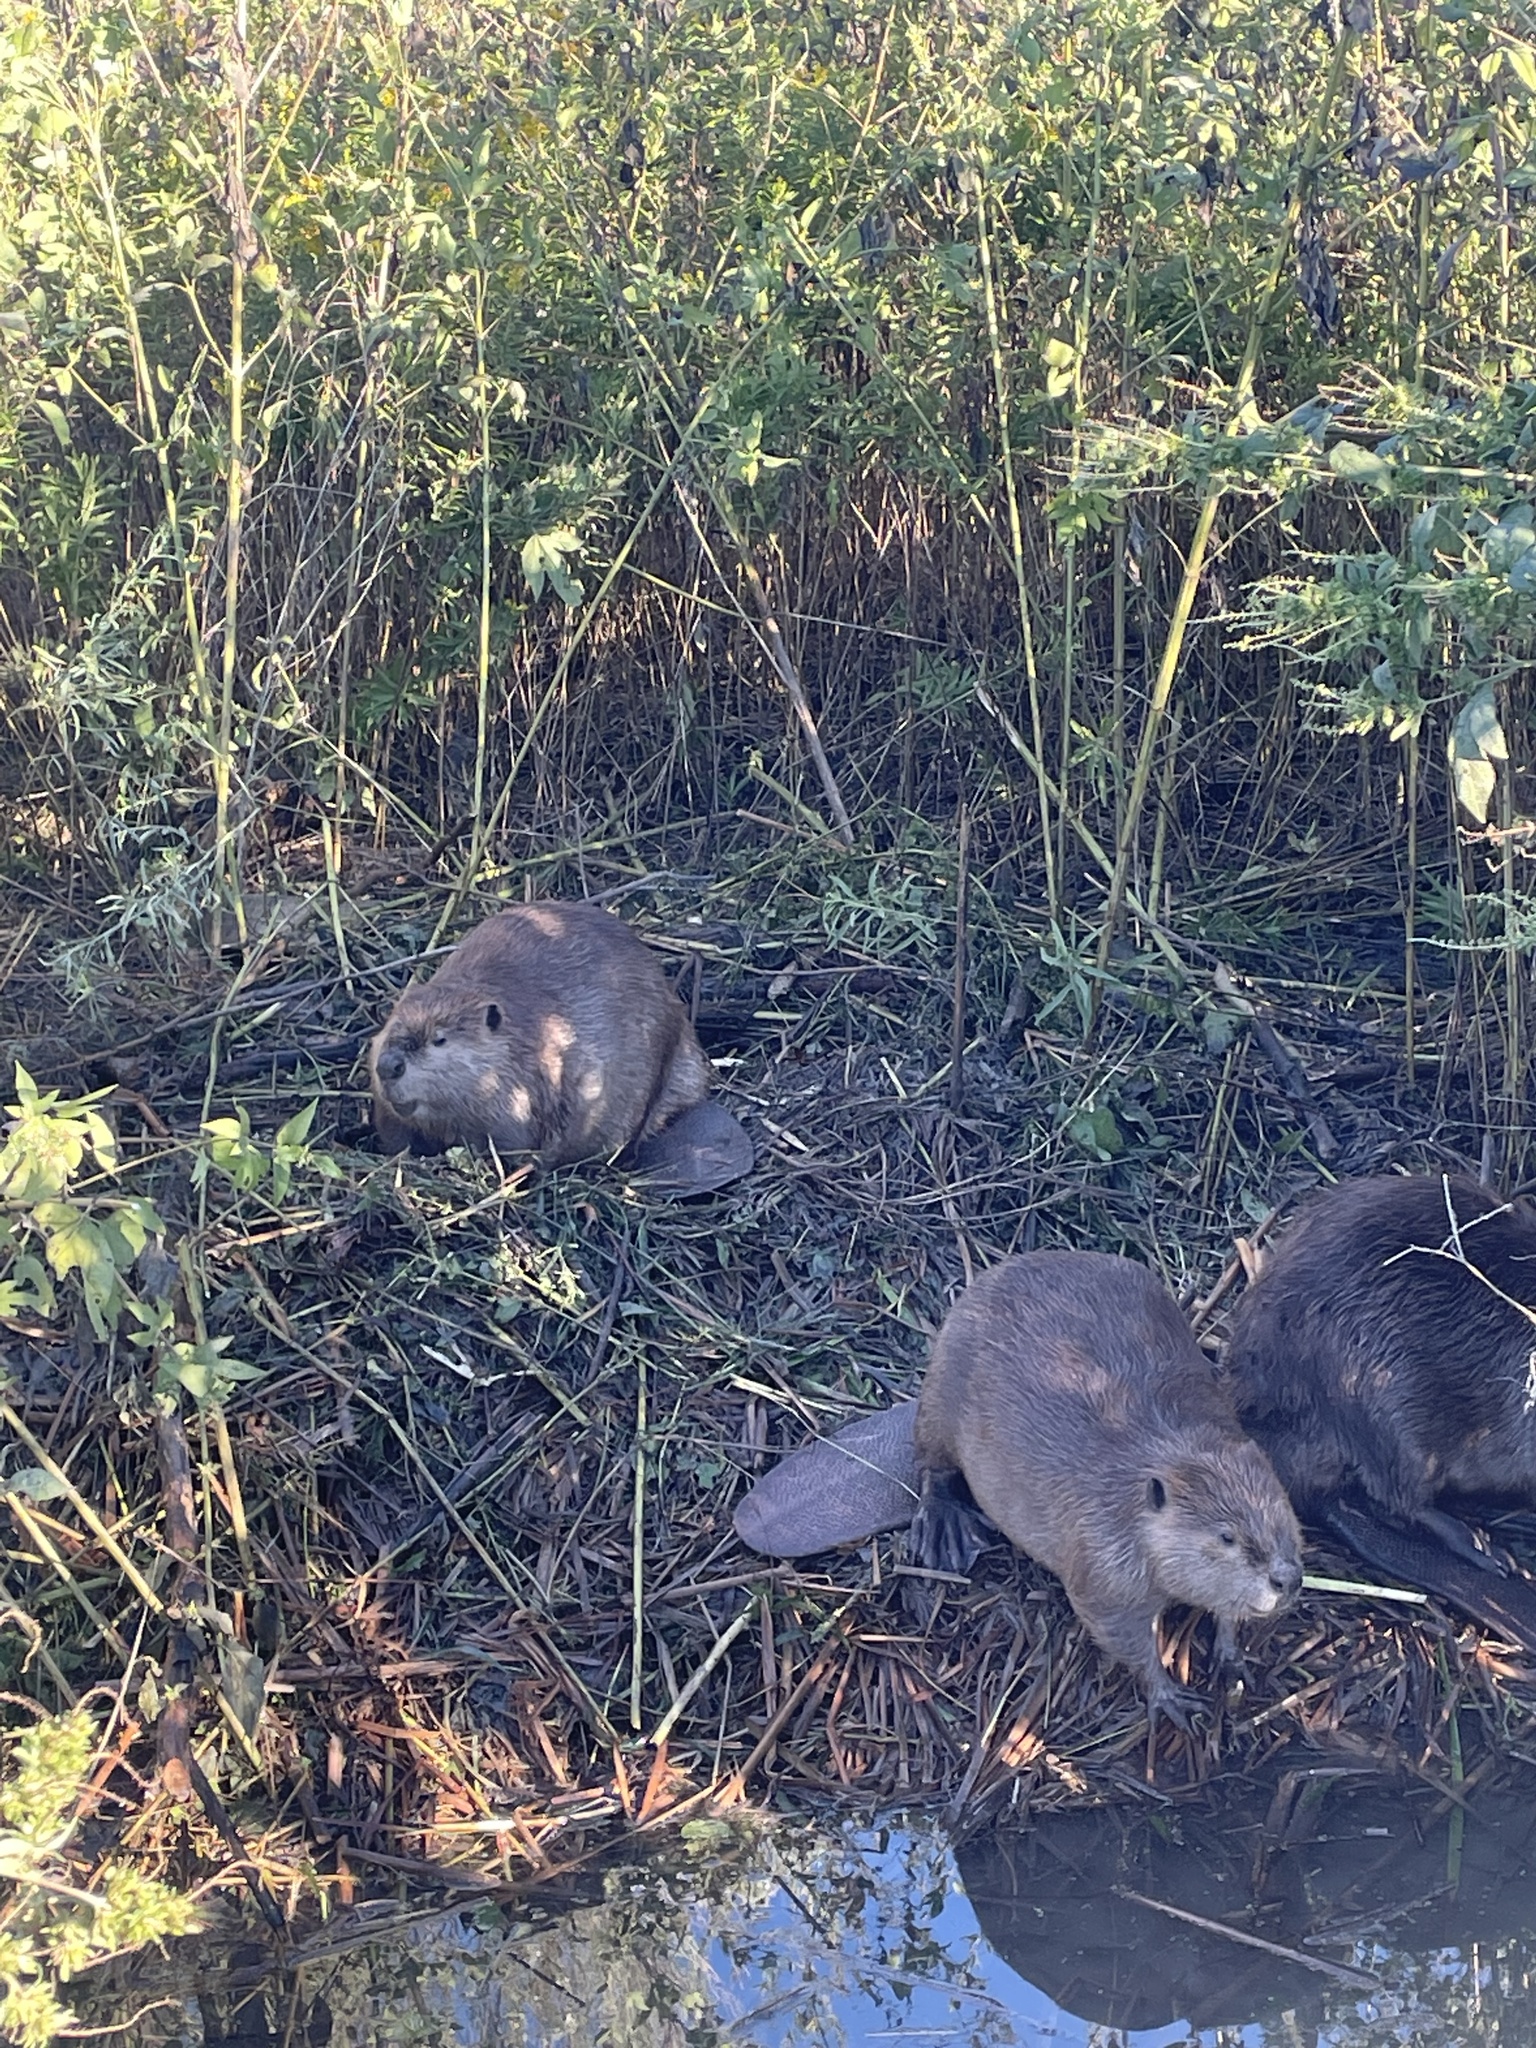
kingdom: Animalia
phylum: Chordata
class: Mammalia
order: Rodentia
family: Castoridae
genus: Castor
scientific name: Castor canadensis
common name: American beaver
